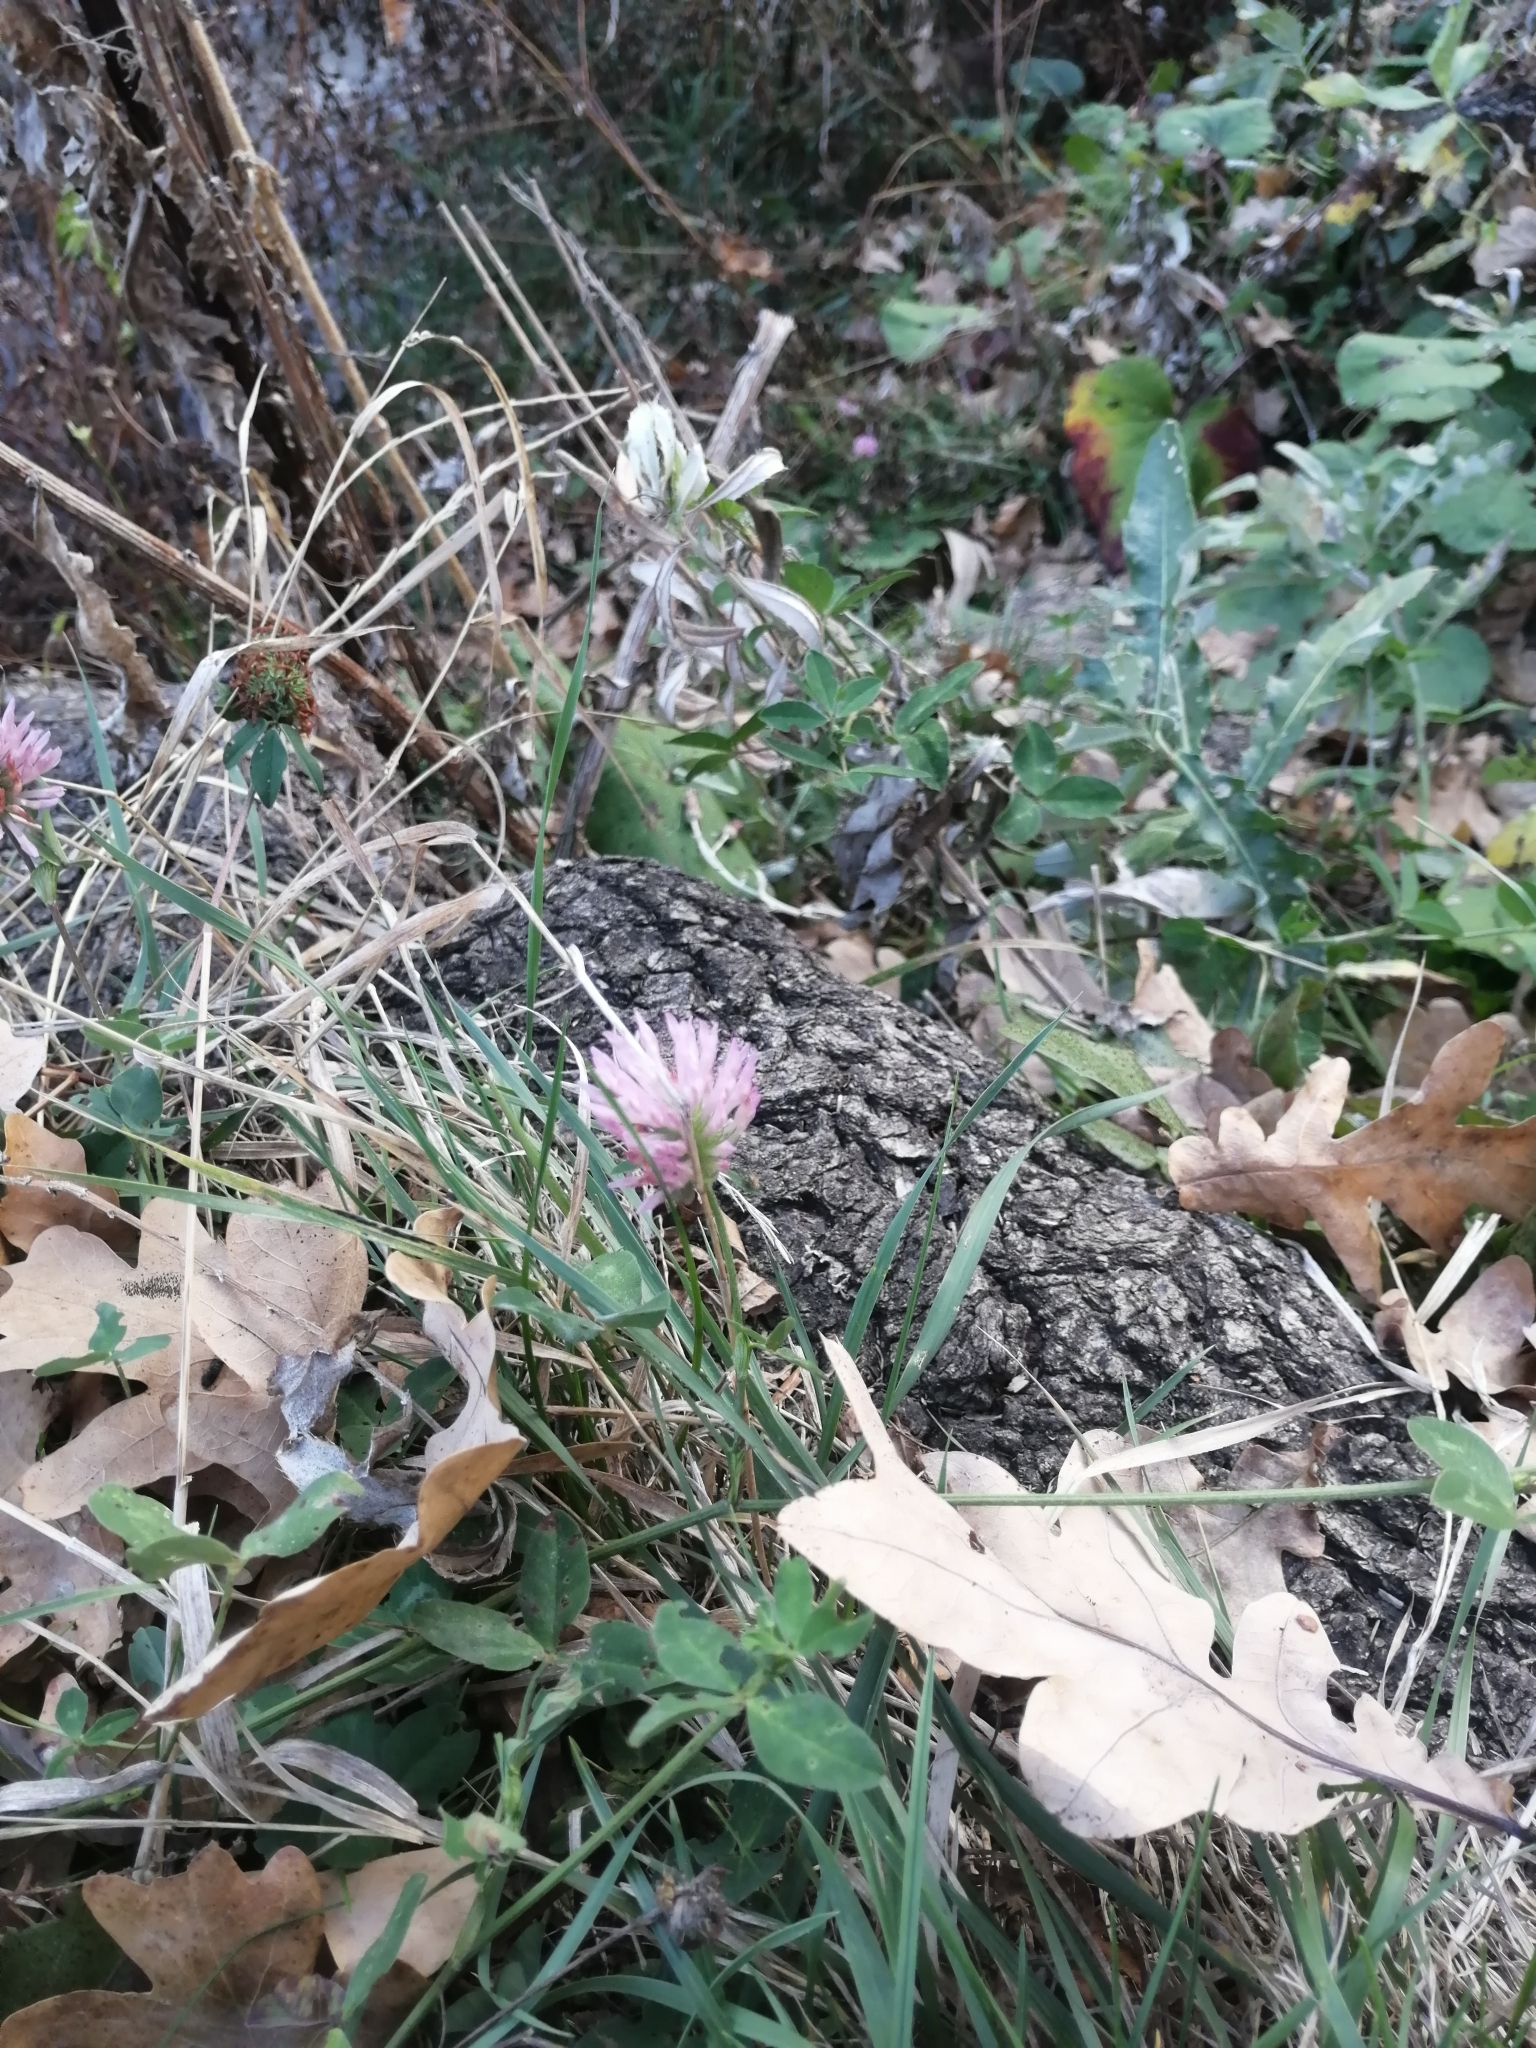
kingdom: Plantae
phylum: Tracheophyta
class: Magnoliopsida
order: Fabales
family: Fabaceae
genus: Trifolium
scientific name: Trifolium pratense
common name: Red clover
